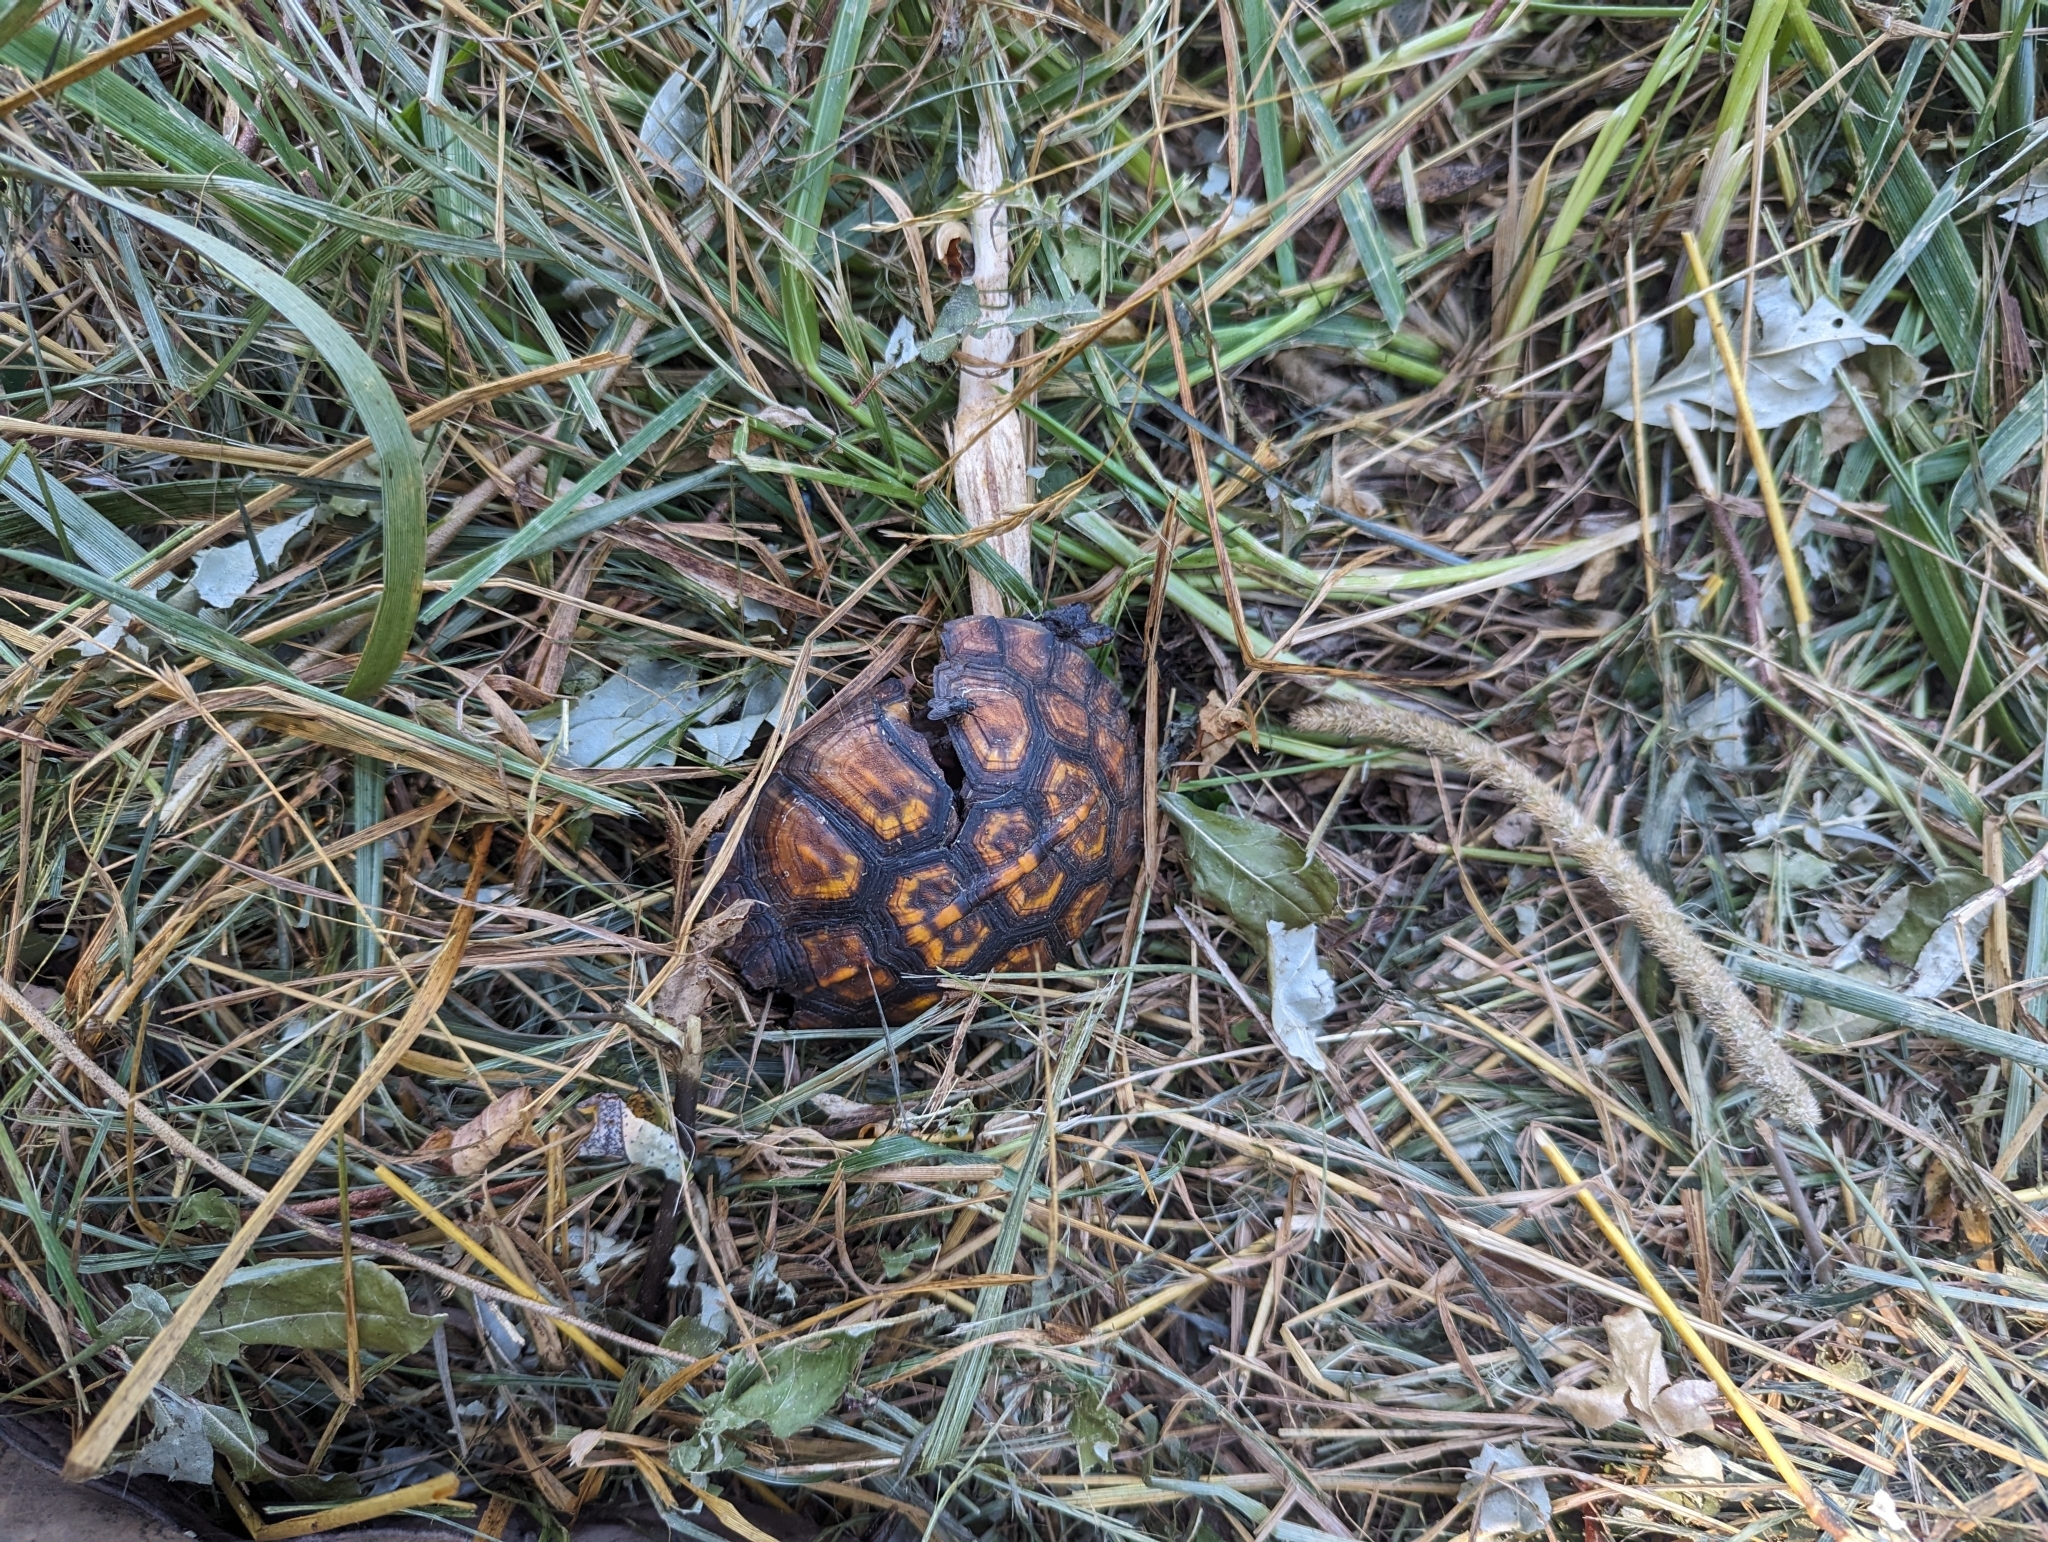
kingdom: Animalia
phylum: Chordata
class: Testudines
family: Emydidae
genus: Terrapene
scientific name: Terrapene carolina
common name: Common box turtle
